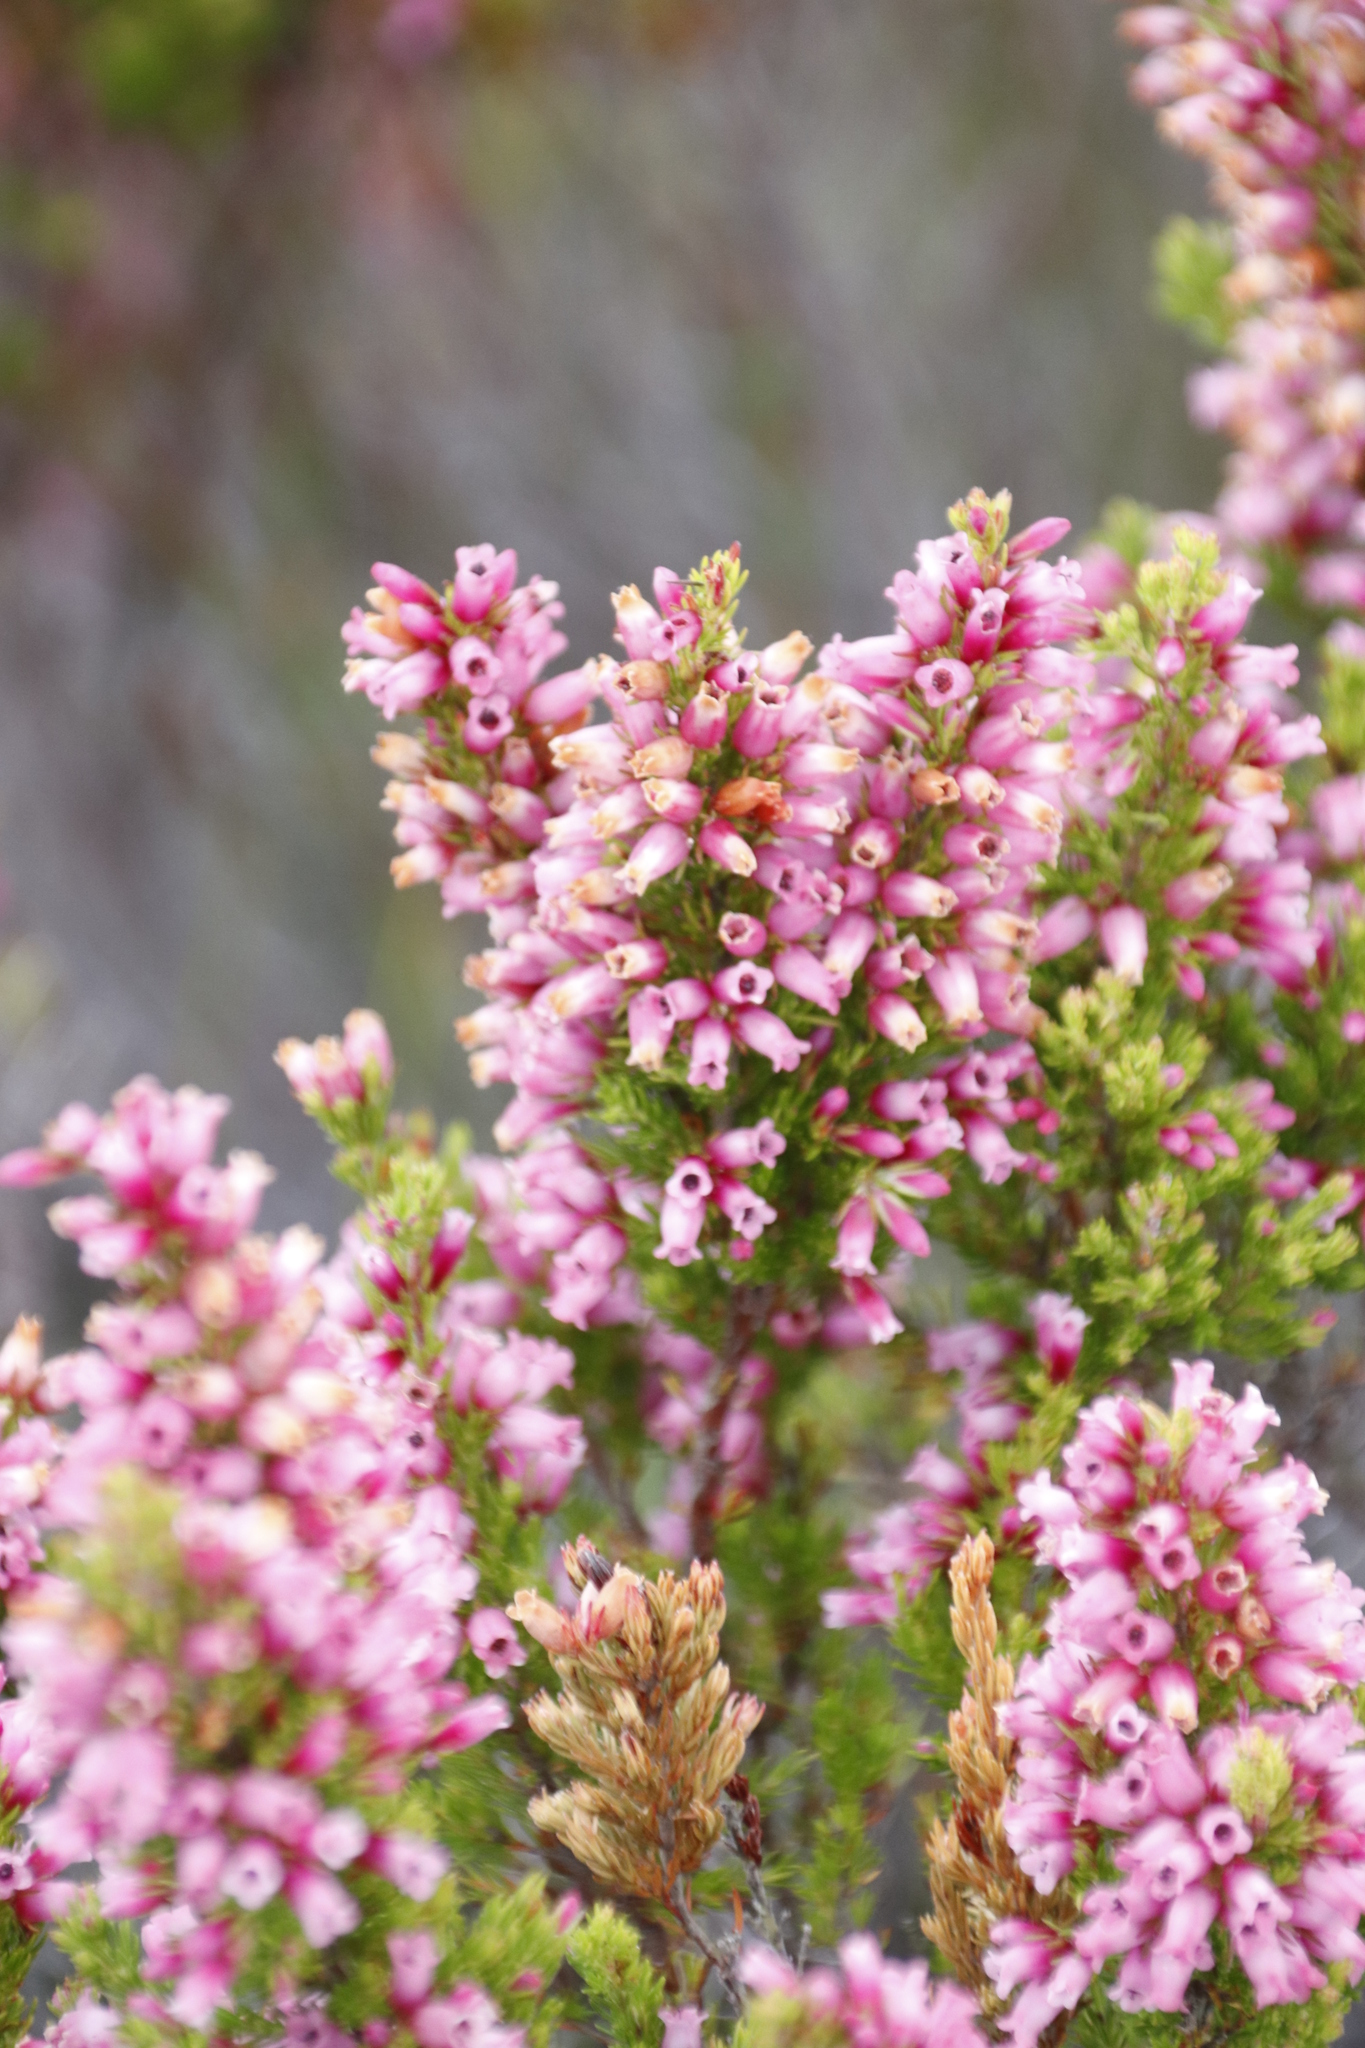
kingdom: Plantae
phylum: Tracheophyta
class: Magnoliopsida
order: Ericales
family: Ericaceae
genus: Erica
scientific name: Erica sitiens
